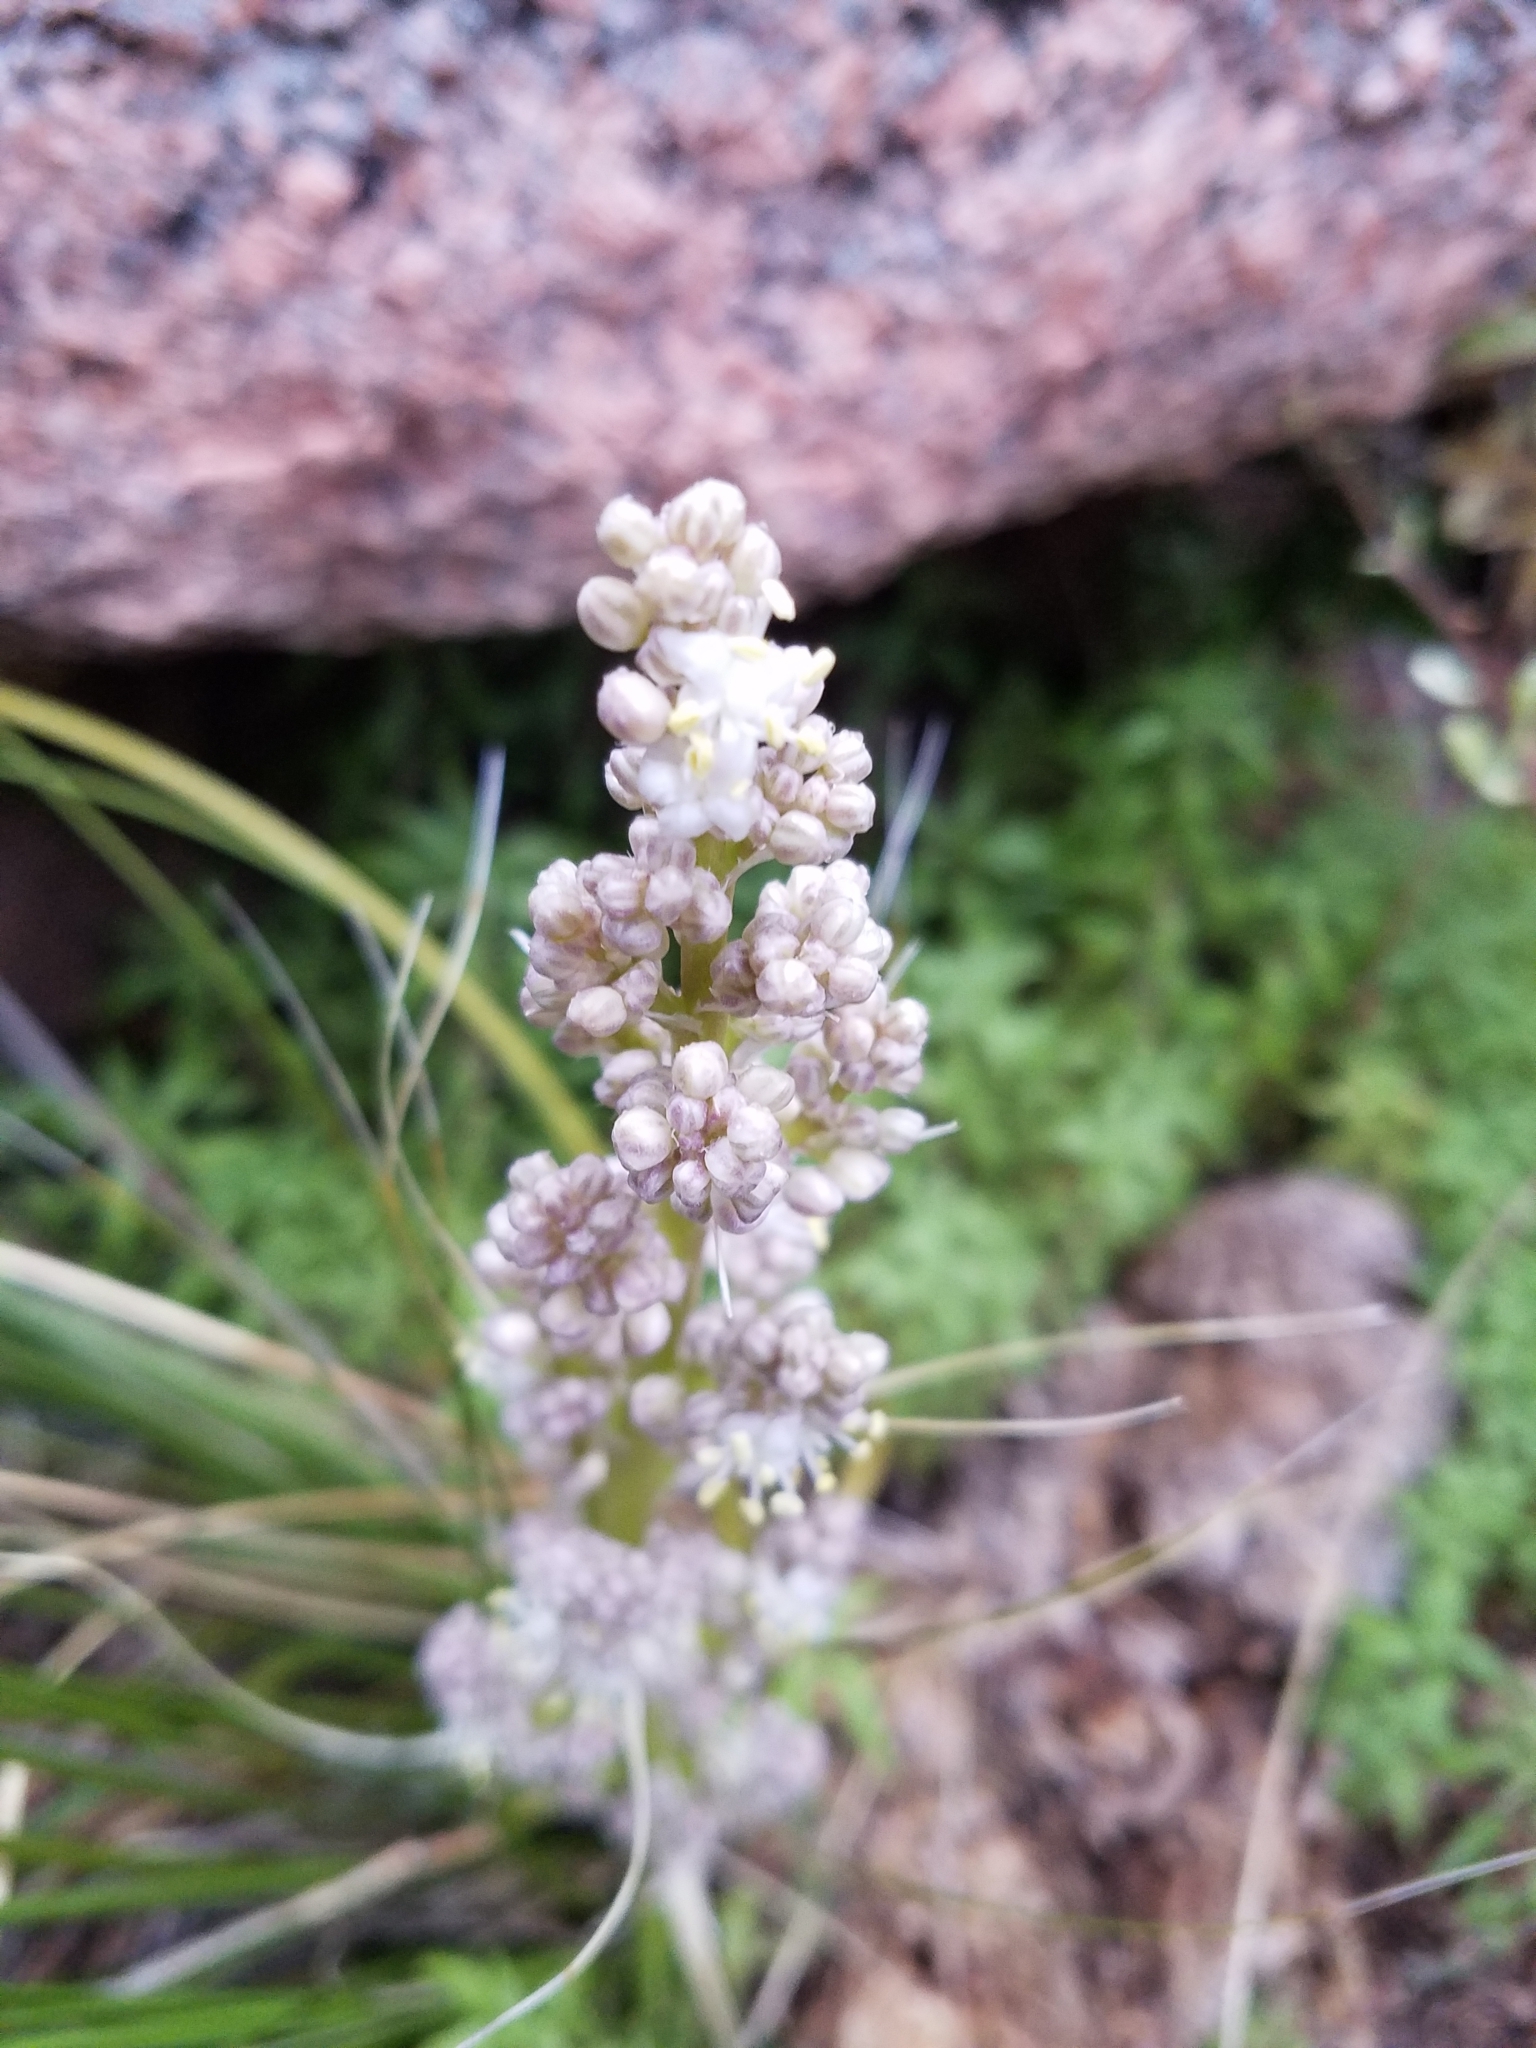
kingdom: Plantae
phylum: Tracheophyta
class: Liliopsida
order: Asparagales
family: Asparagaceae
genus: Nolina
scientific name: Nolina texana
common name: Texas sacahuiste
